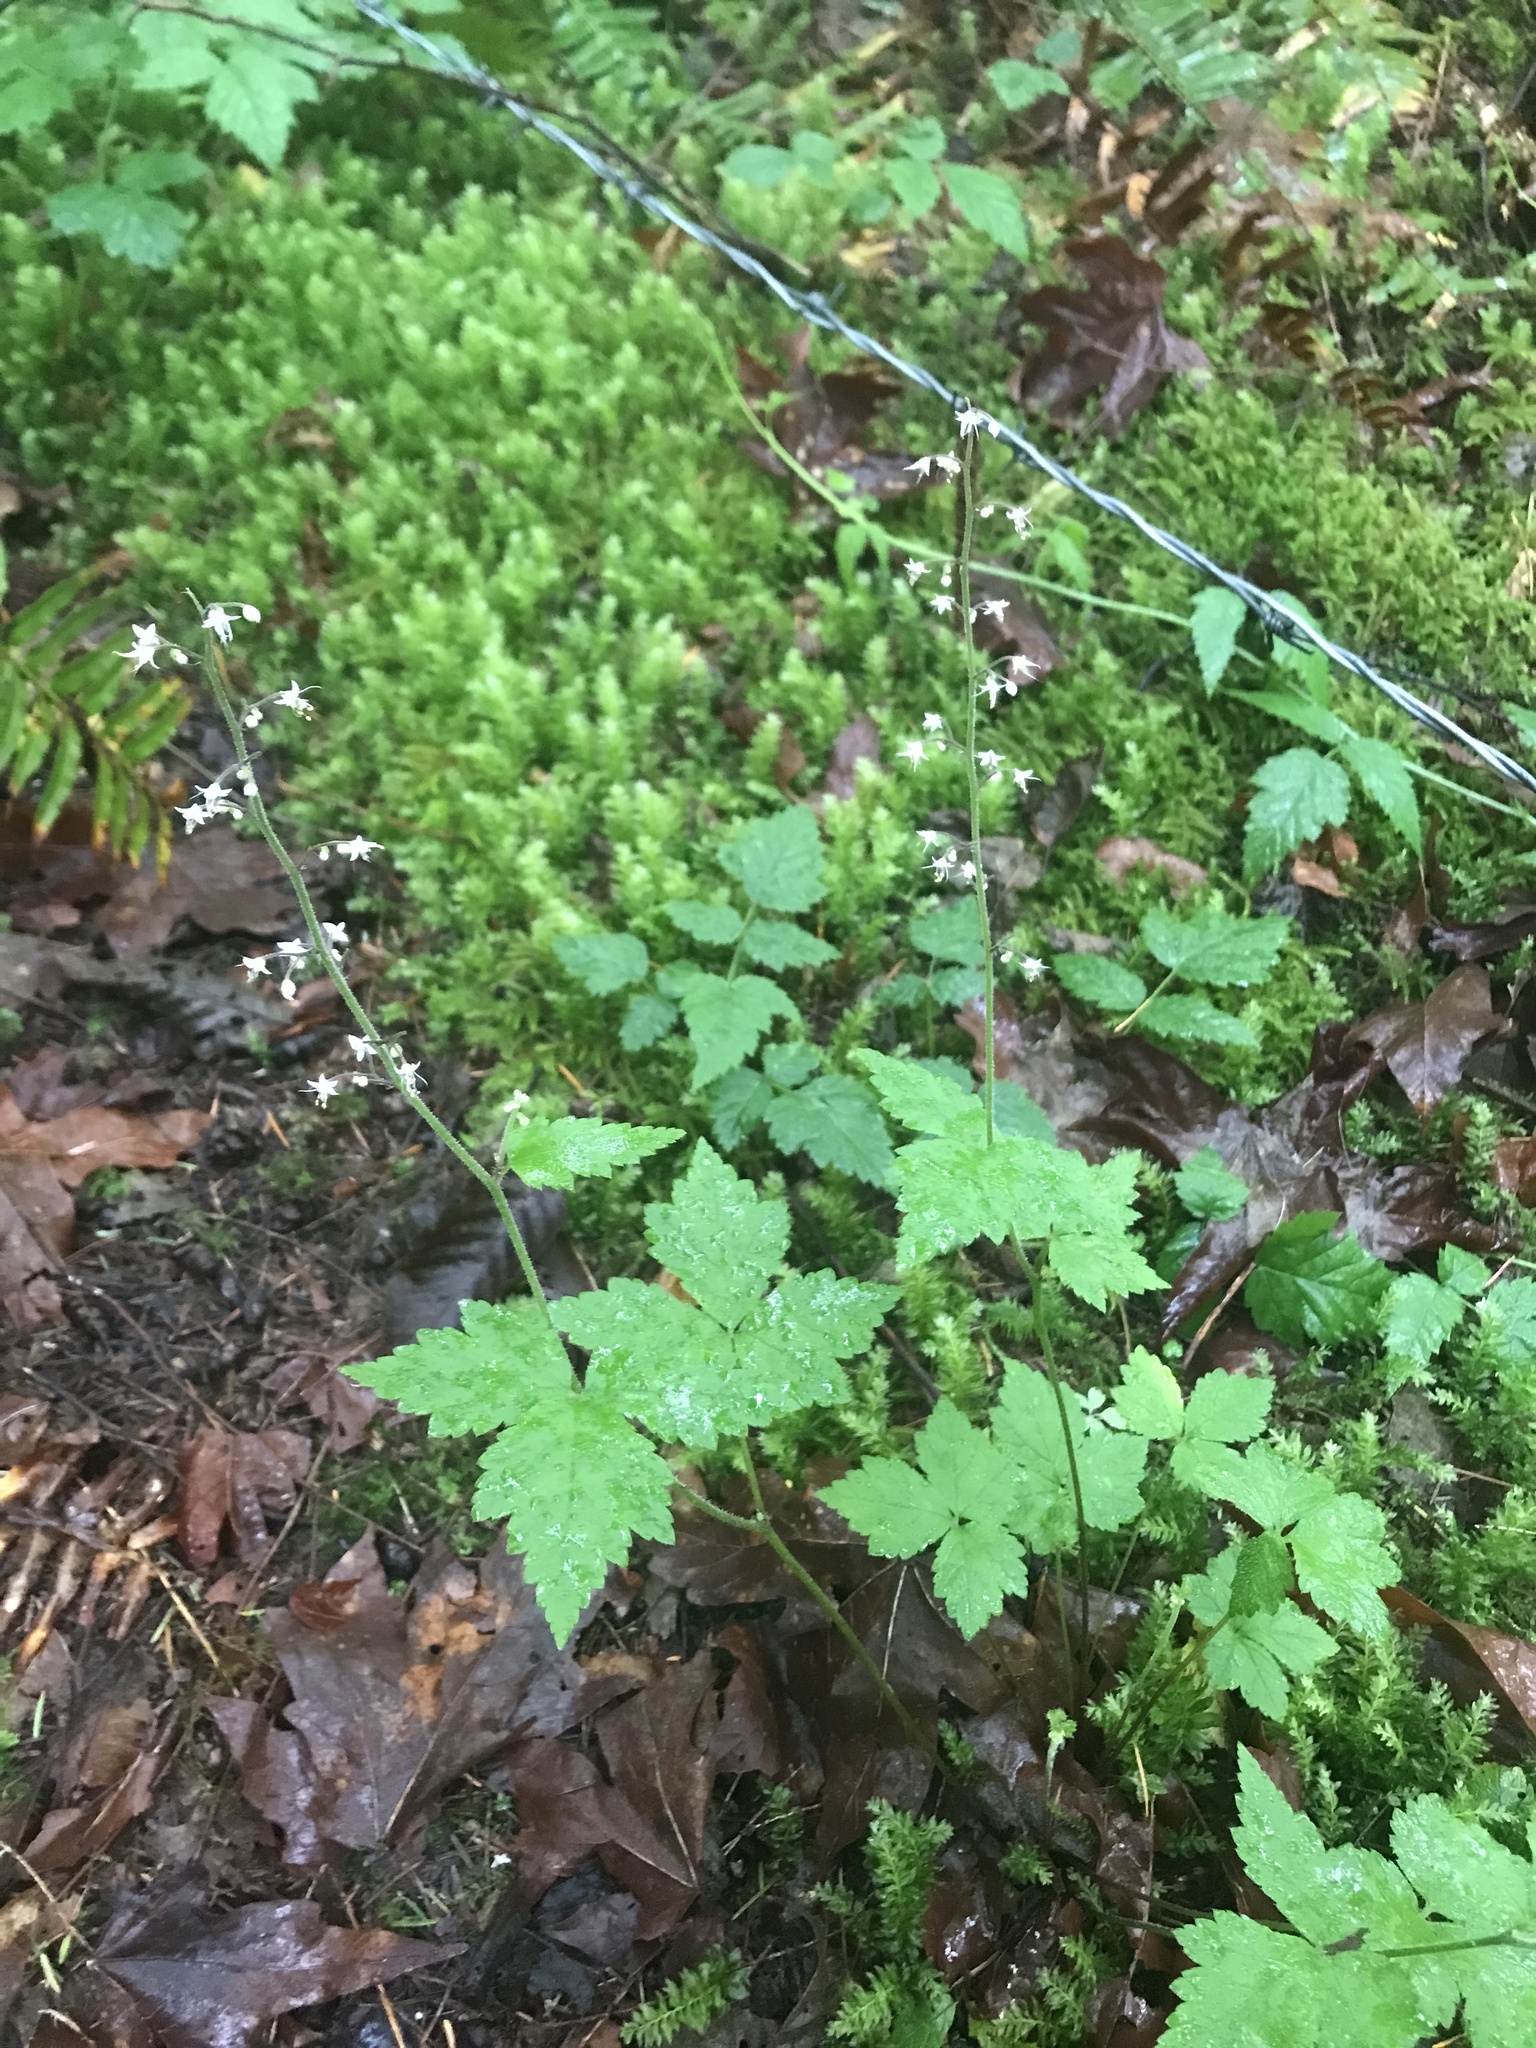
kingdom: Plantae
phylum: Tracheophyta
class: Magnoliopsida
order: Saxifragales
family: Saxifragaceae
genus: Tiarella
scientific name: Tiarella trifoliata
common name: Sugar-scoop
